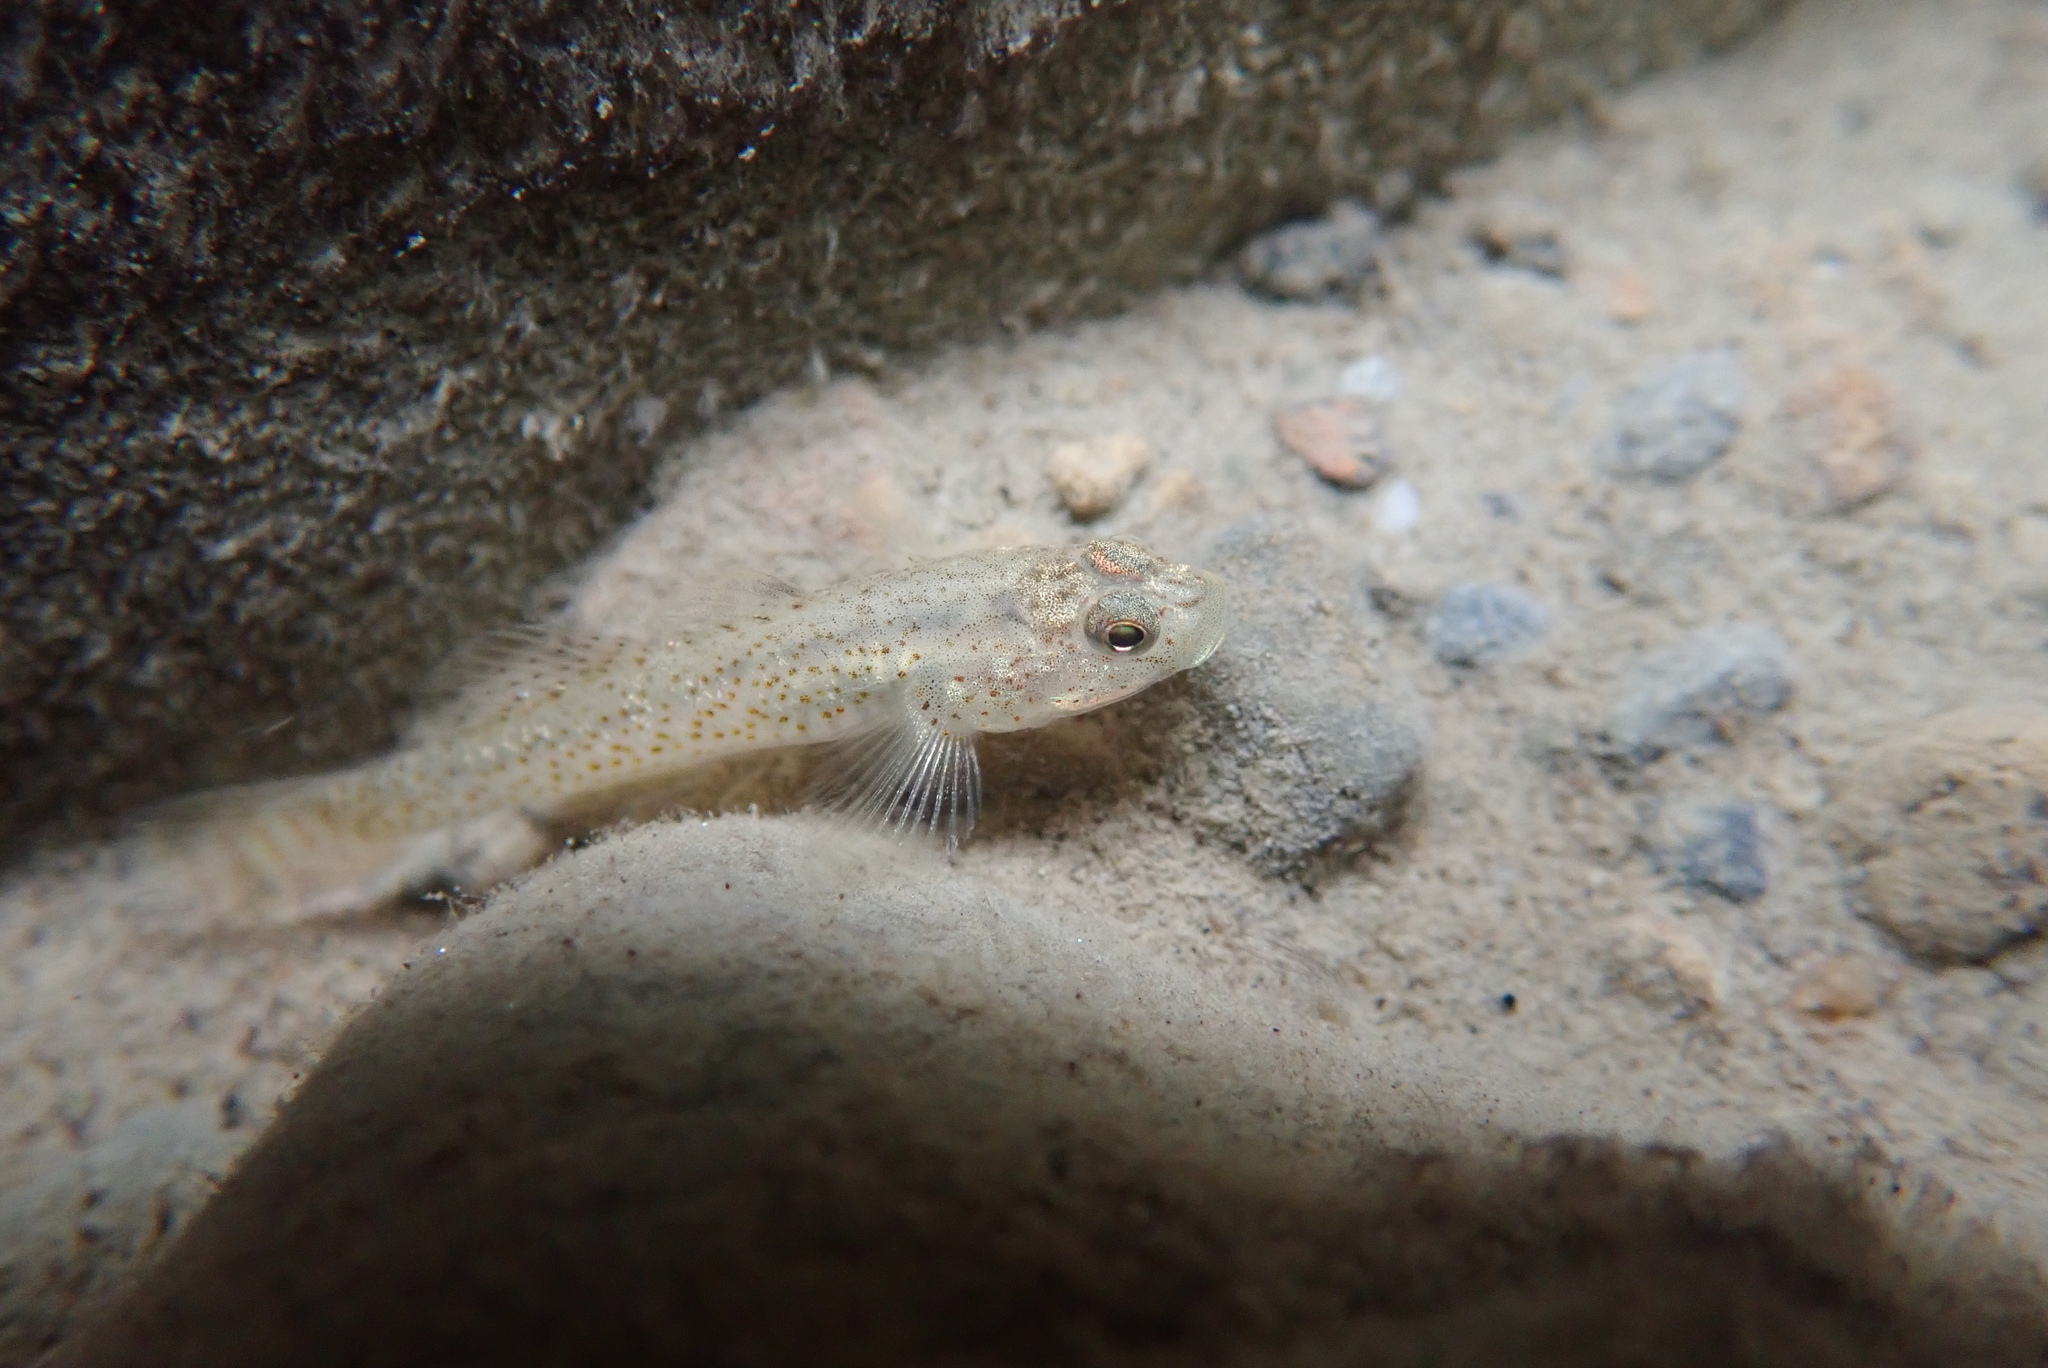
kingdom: Animalia
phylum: Chordata
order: Perciformes
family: Gobiidae
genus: Rhinogobius
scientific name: Rhinogobius rubromaculatus
